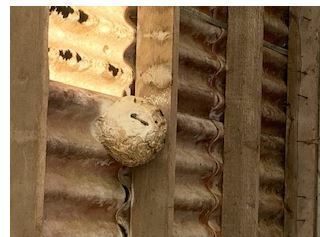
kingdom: Animalia
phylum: Arthropoda
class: Insecta
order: Hymenoptera
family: Vespidae
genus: Vespa
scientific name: Vespa velutina
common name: Asian hornet
